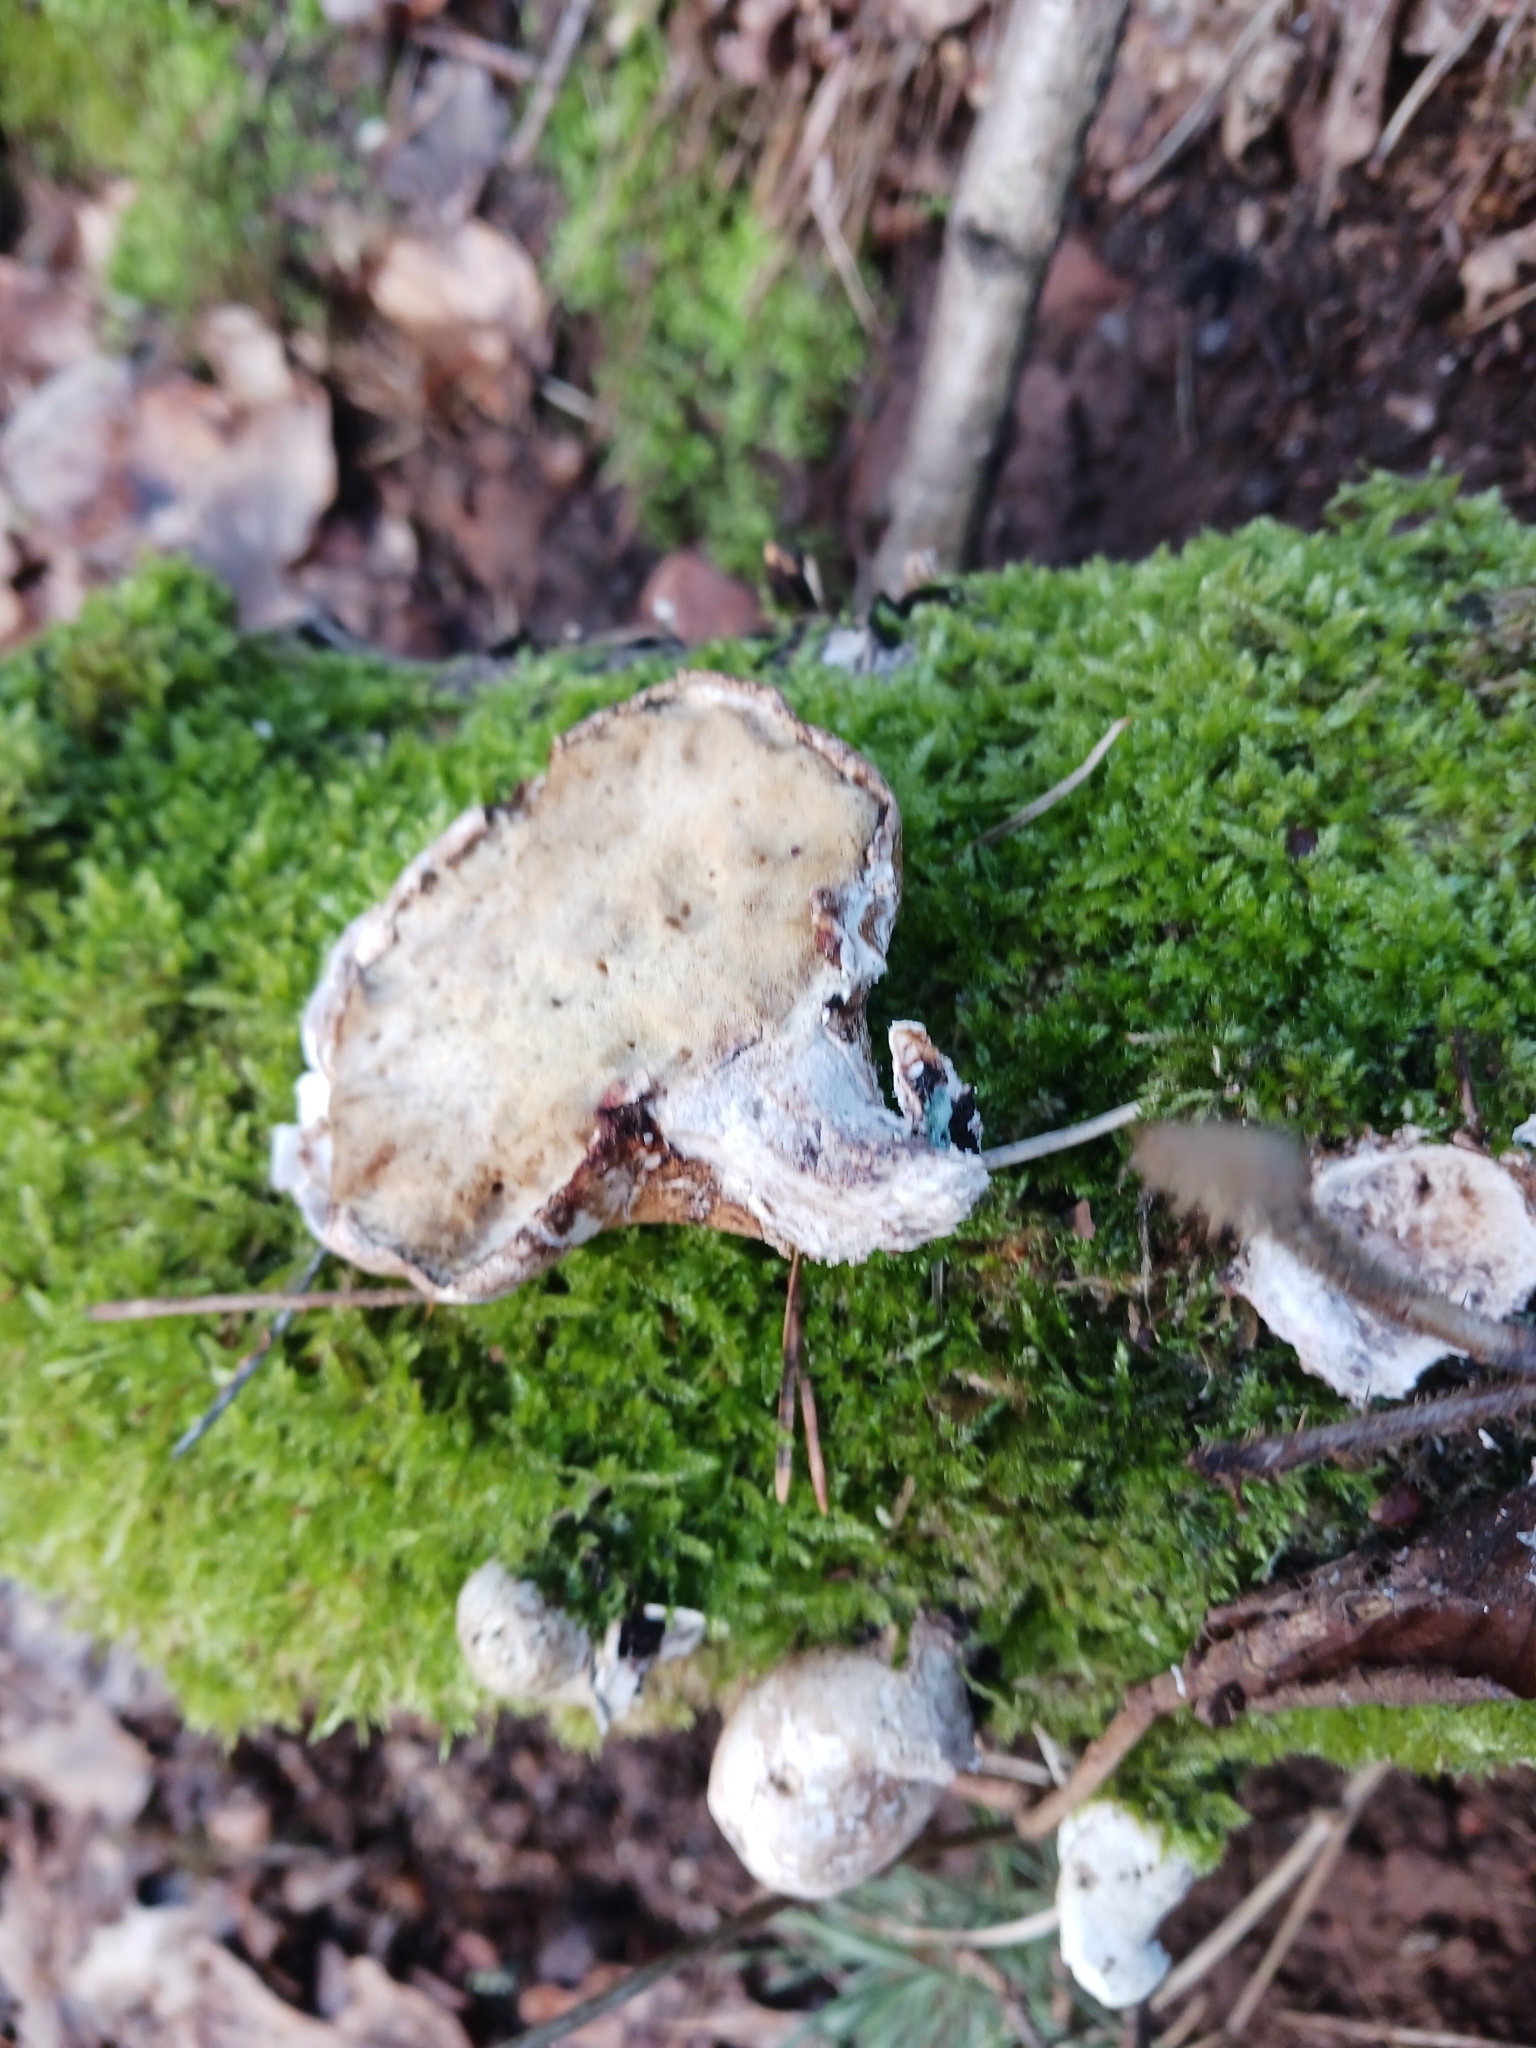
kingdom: Fungi
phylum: Basidiomycota
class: Agaricomycetes
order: Polyporales
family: Fomitopsidaceae
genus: Fomitopsis
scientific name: Fomitopsis betulina
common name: Birch polypore
